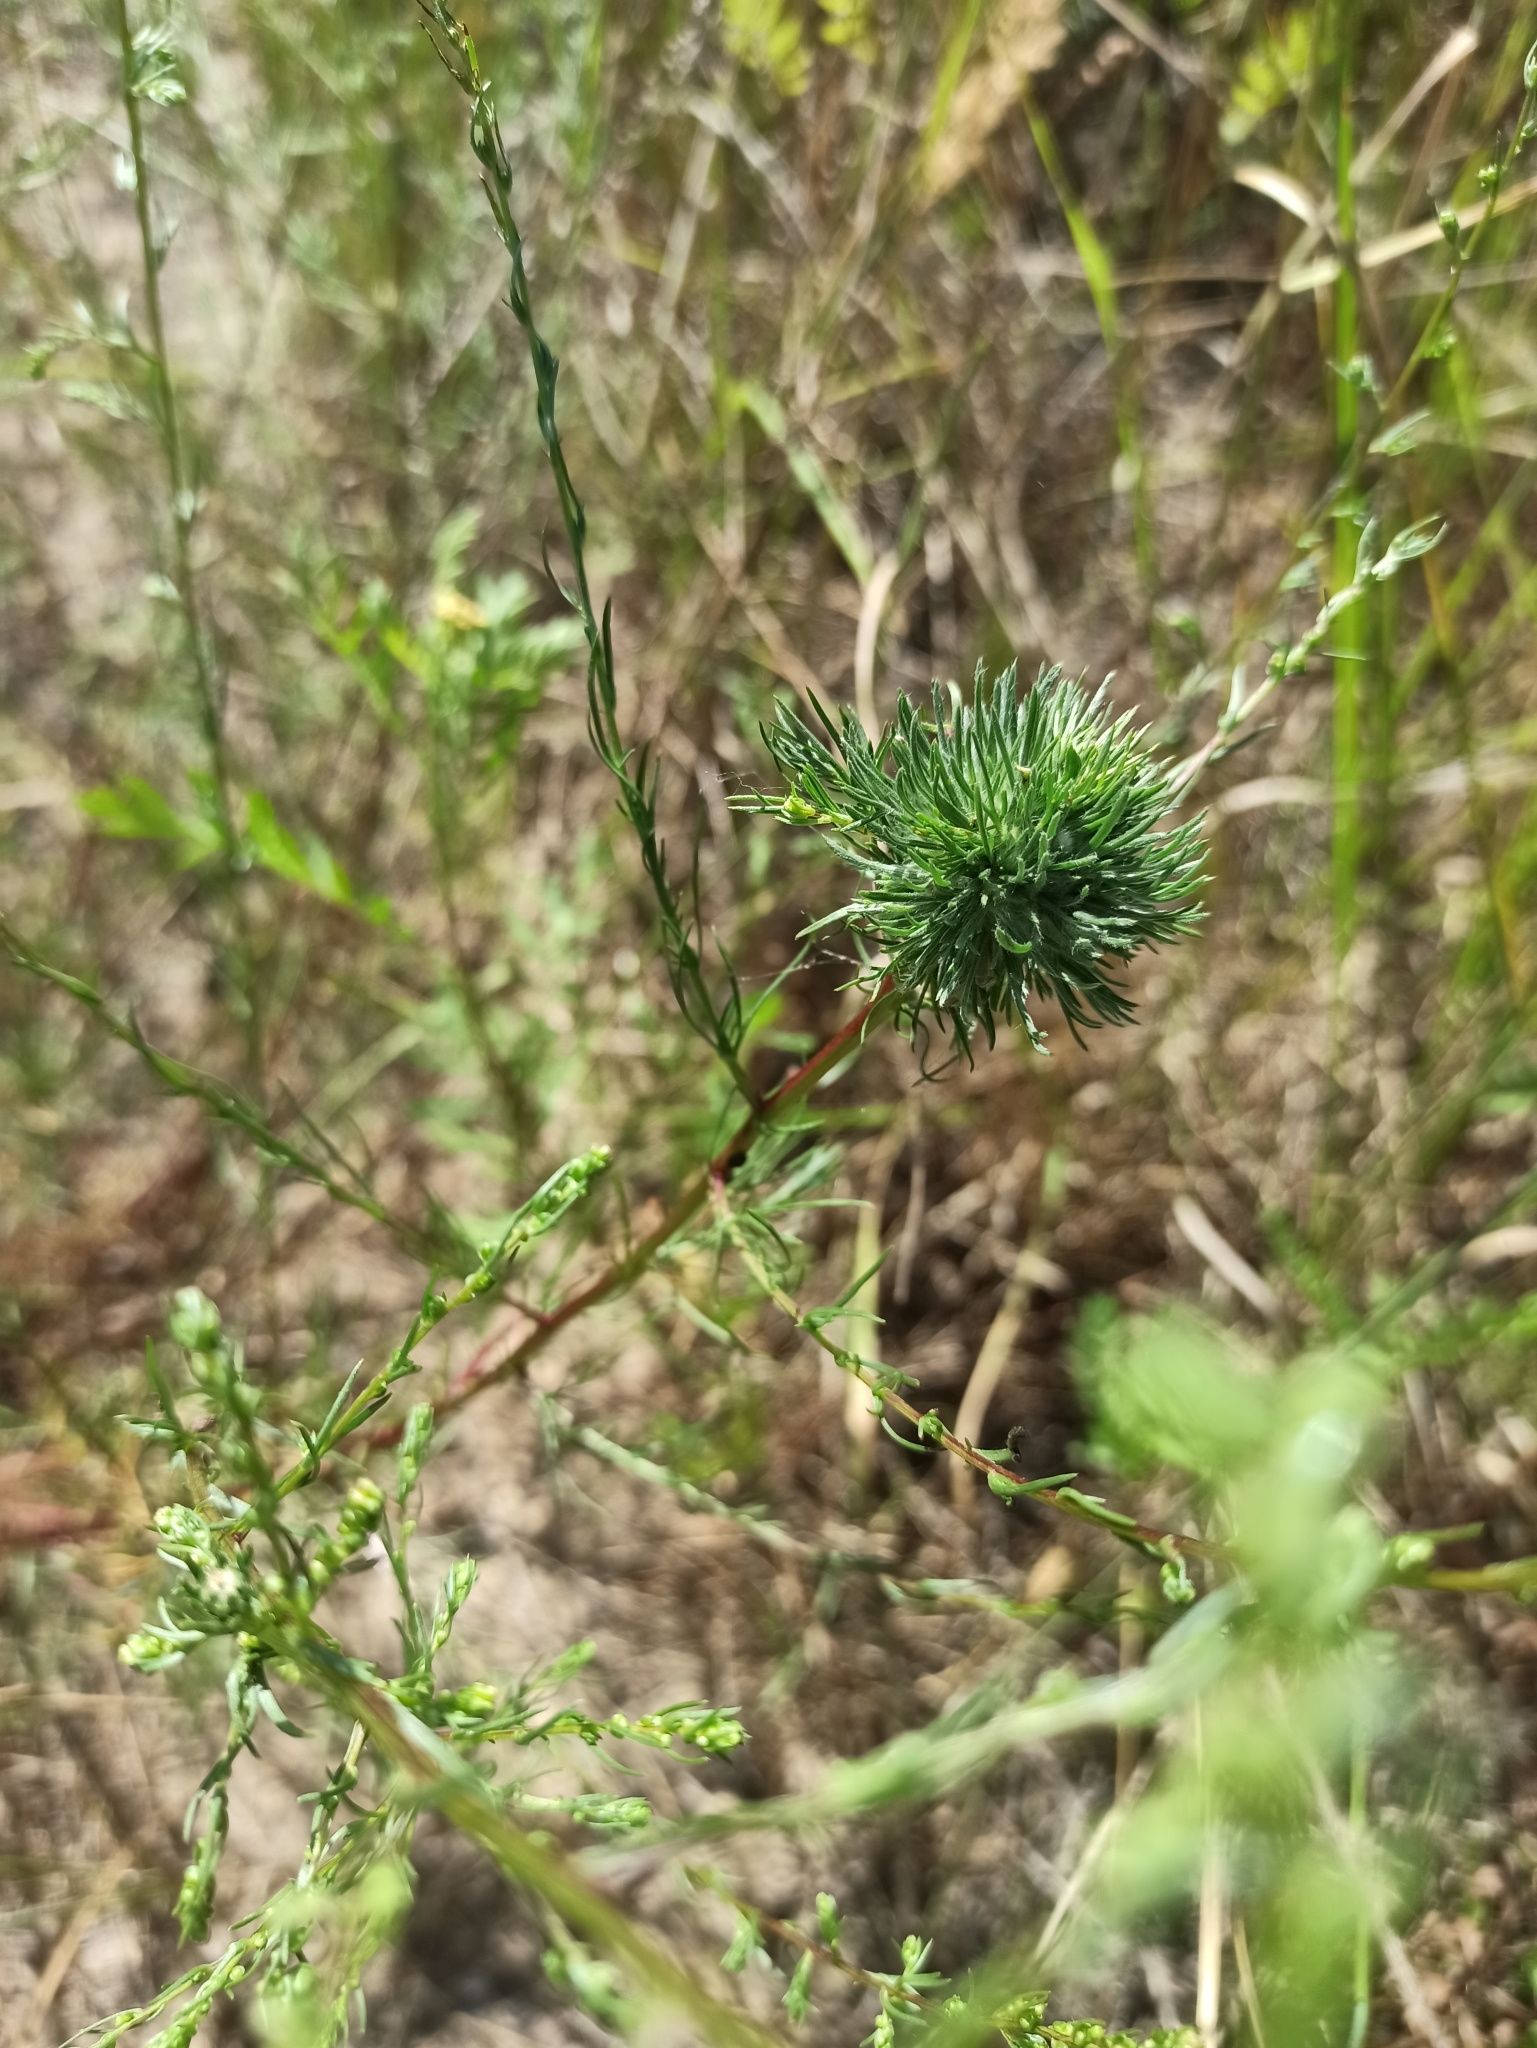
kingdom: Plantae
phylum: Tracheophyta
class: Magnoliopsida
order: Asterales
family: Asteraceae
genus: Artemisia
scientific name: Artemisia campestris
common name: Field wormwood
